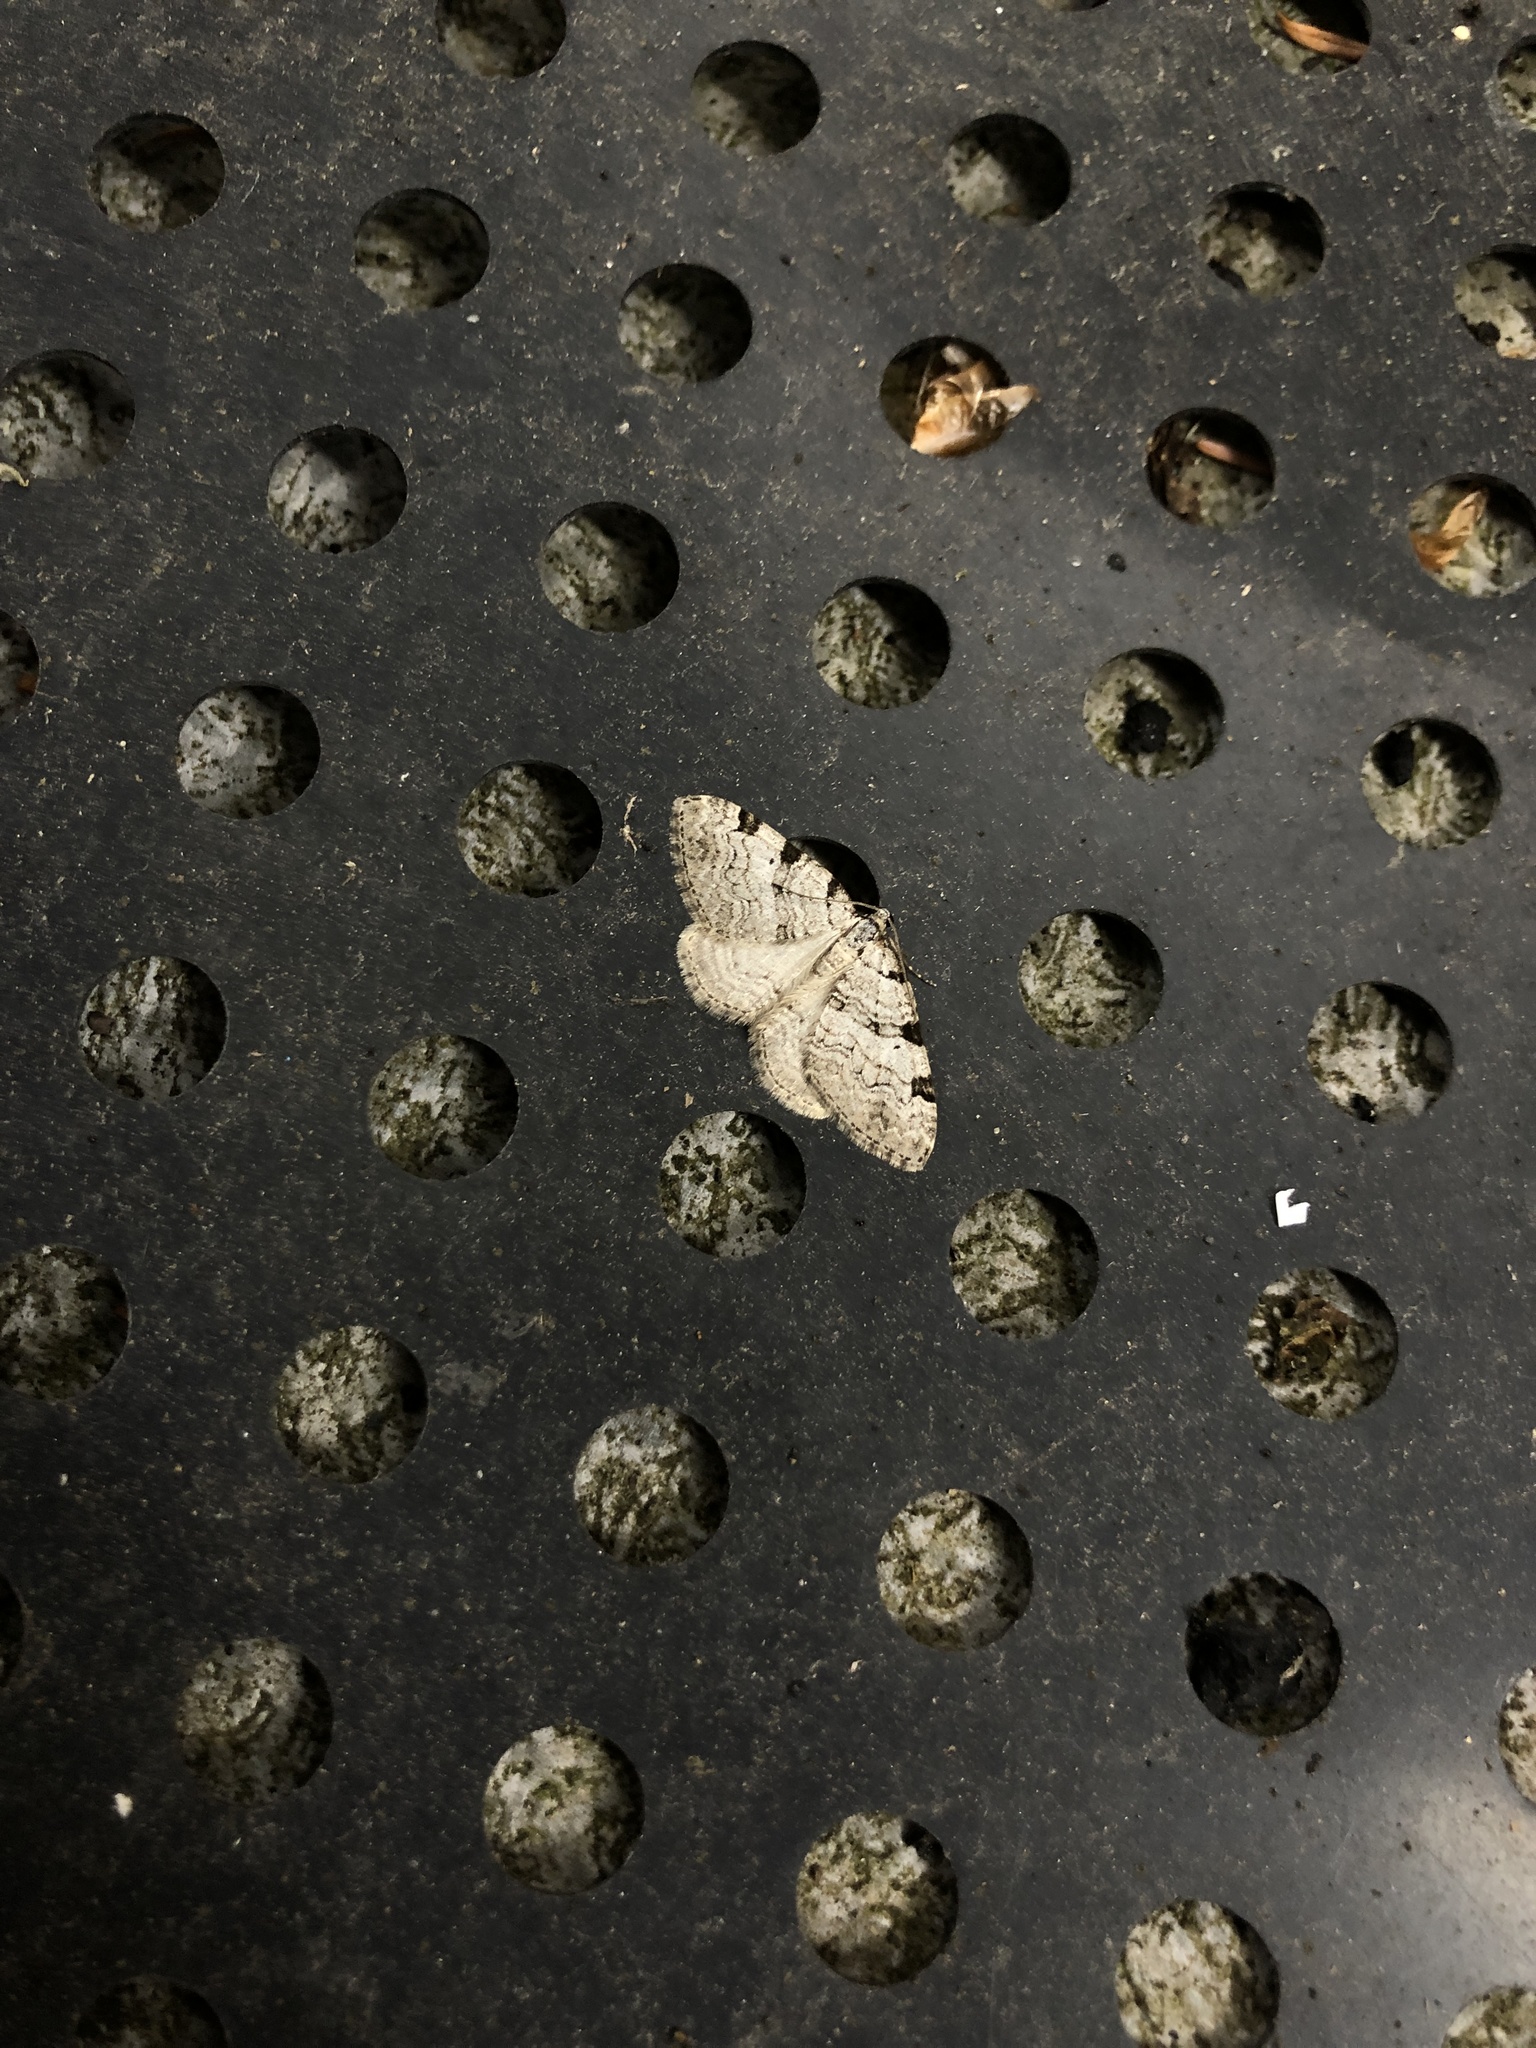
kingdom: Animalia
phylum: Arthropoda
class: Insecta
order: Lepidoptera
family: Geometridae
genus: Perizoma
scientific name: Perizoma costiguttata
